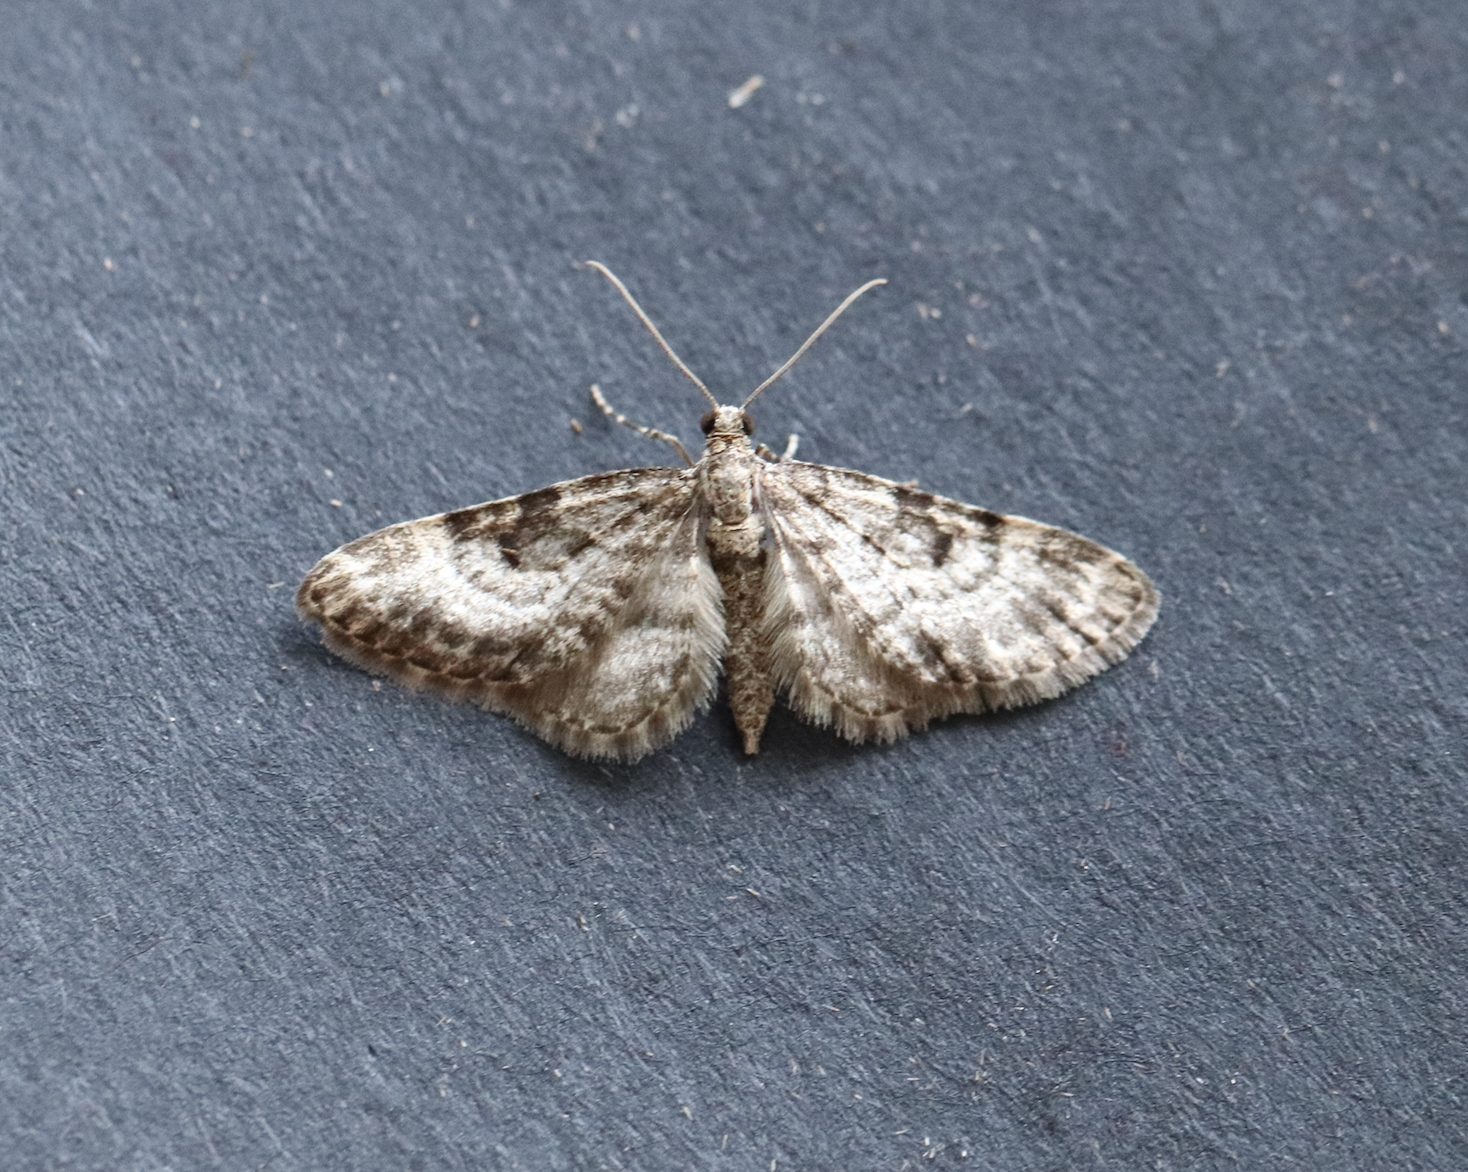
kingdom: Animalia
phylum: Arthropoda
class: Insecta
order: Lepidoptera
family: Geometridae
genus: Eupithecia
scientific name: Eupithecia tantillaria
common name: Dwarf pug
